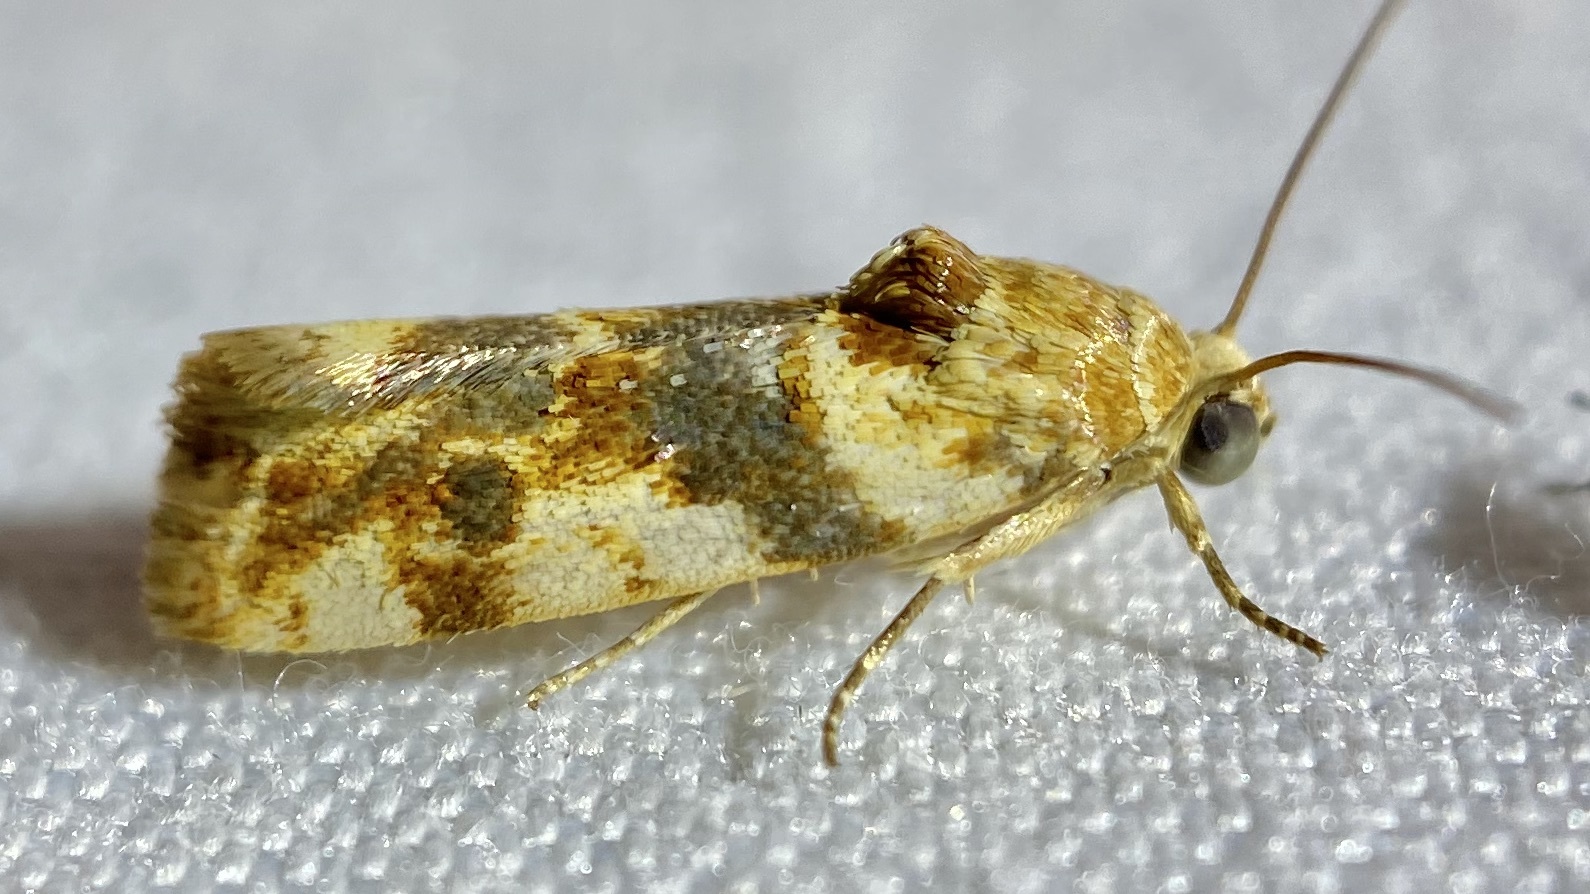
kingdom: Animalia
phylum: Arthropoda
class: Insecta
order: Lepidoptera
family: Noctuidae
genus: Acontia
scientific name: Acontia obatra
